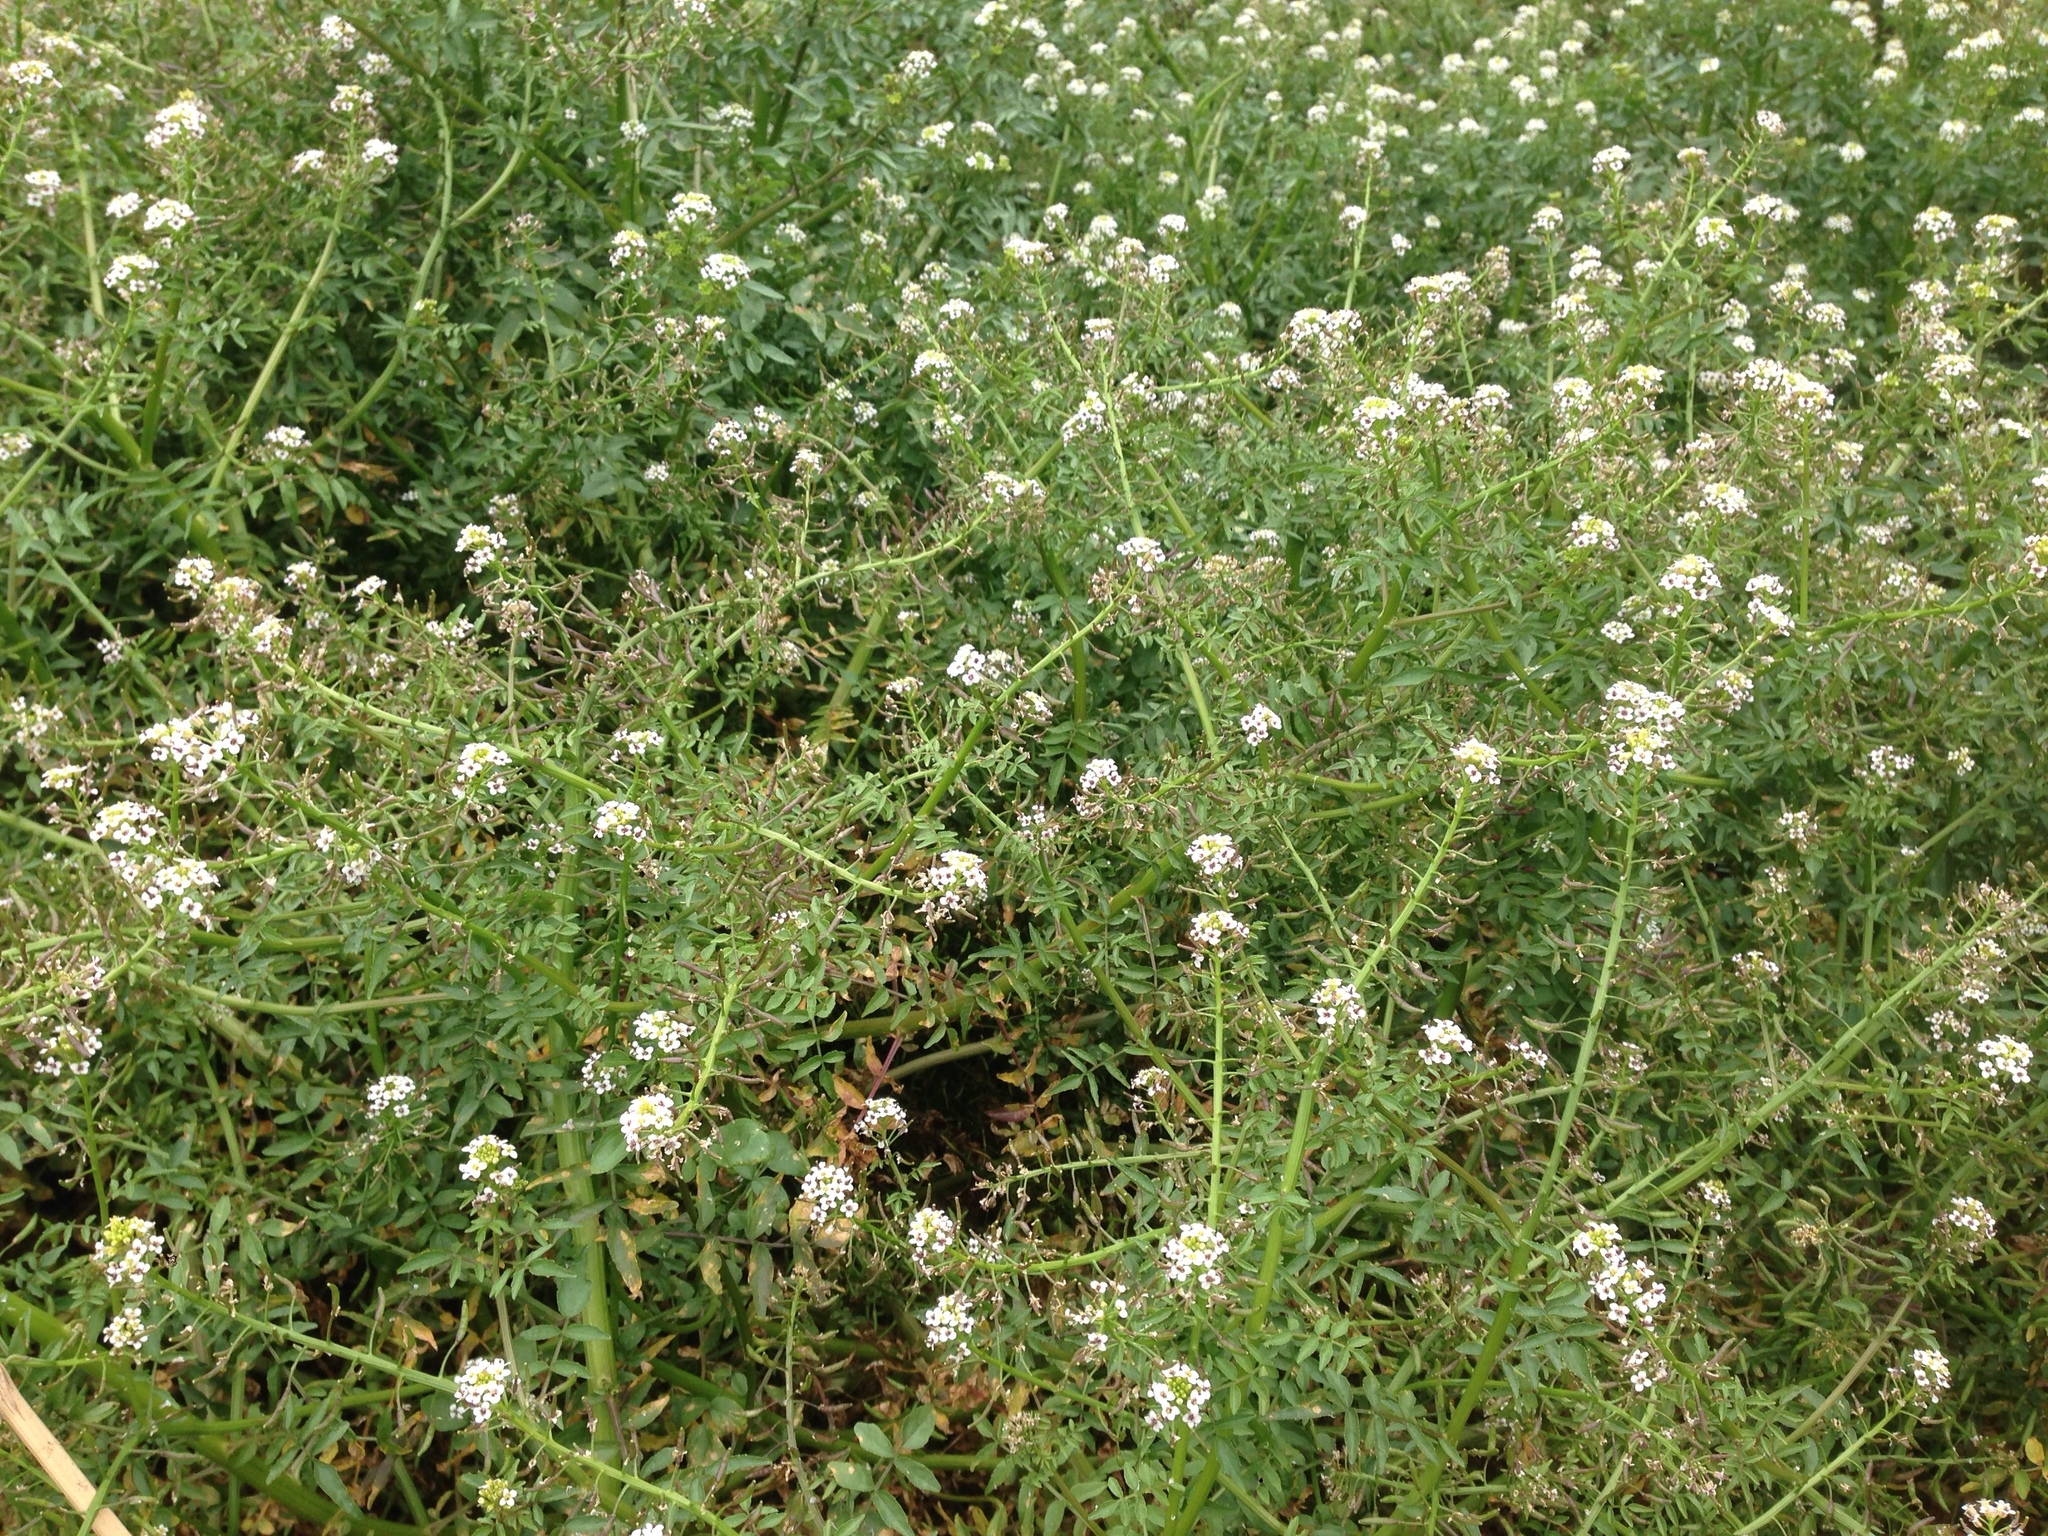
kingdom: Plantae
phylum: Tracheophyta
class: Magnoliopsida
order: Brassicales
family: Brassicaceae
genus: Nasturtium
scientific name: Nasturtium officinale
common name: Watercress
